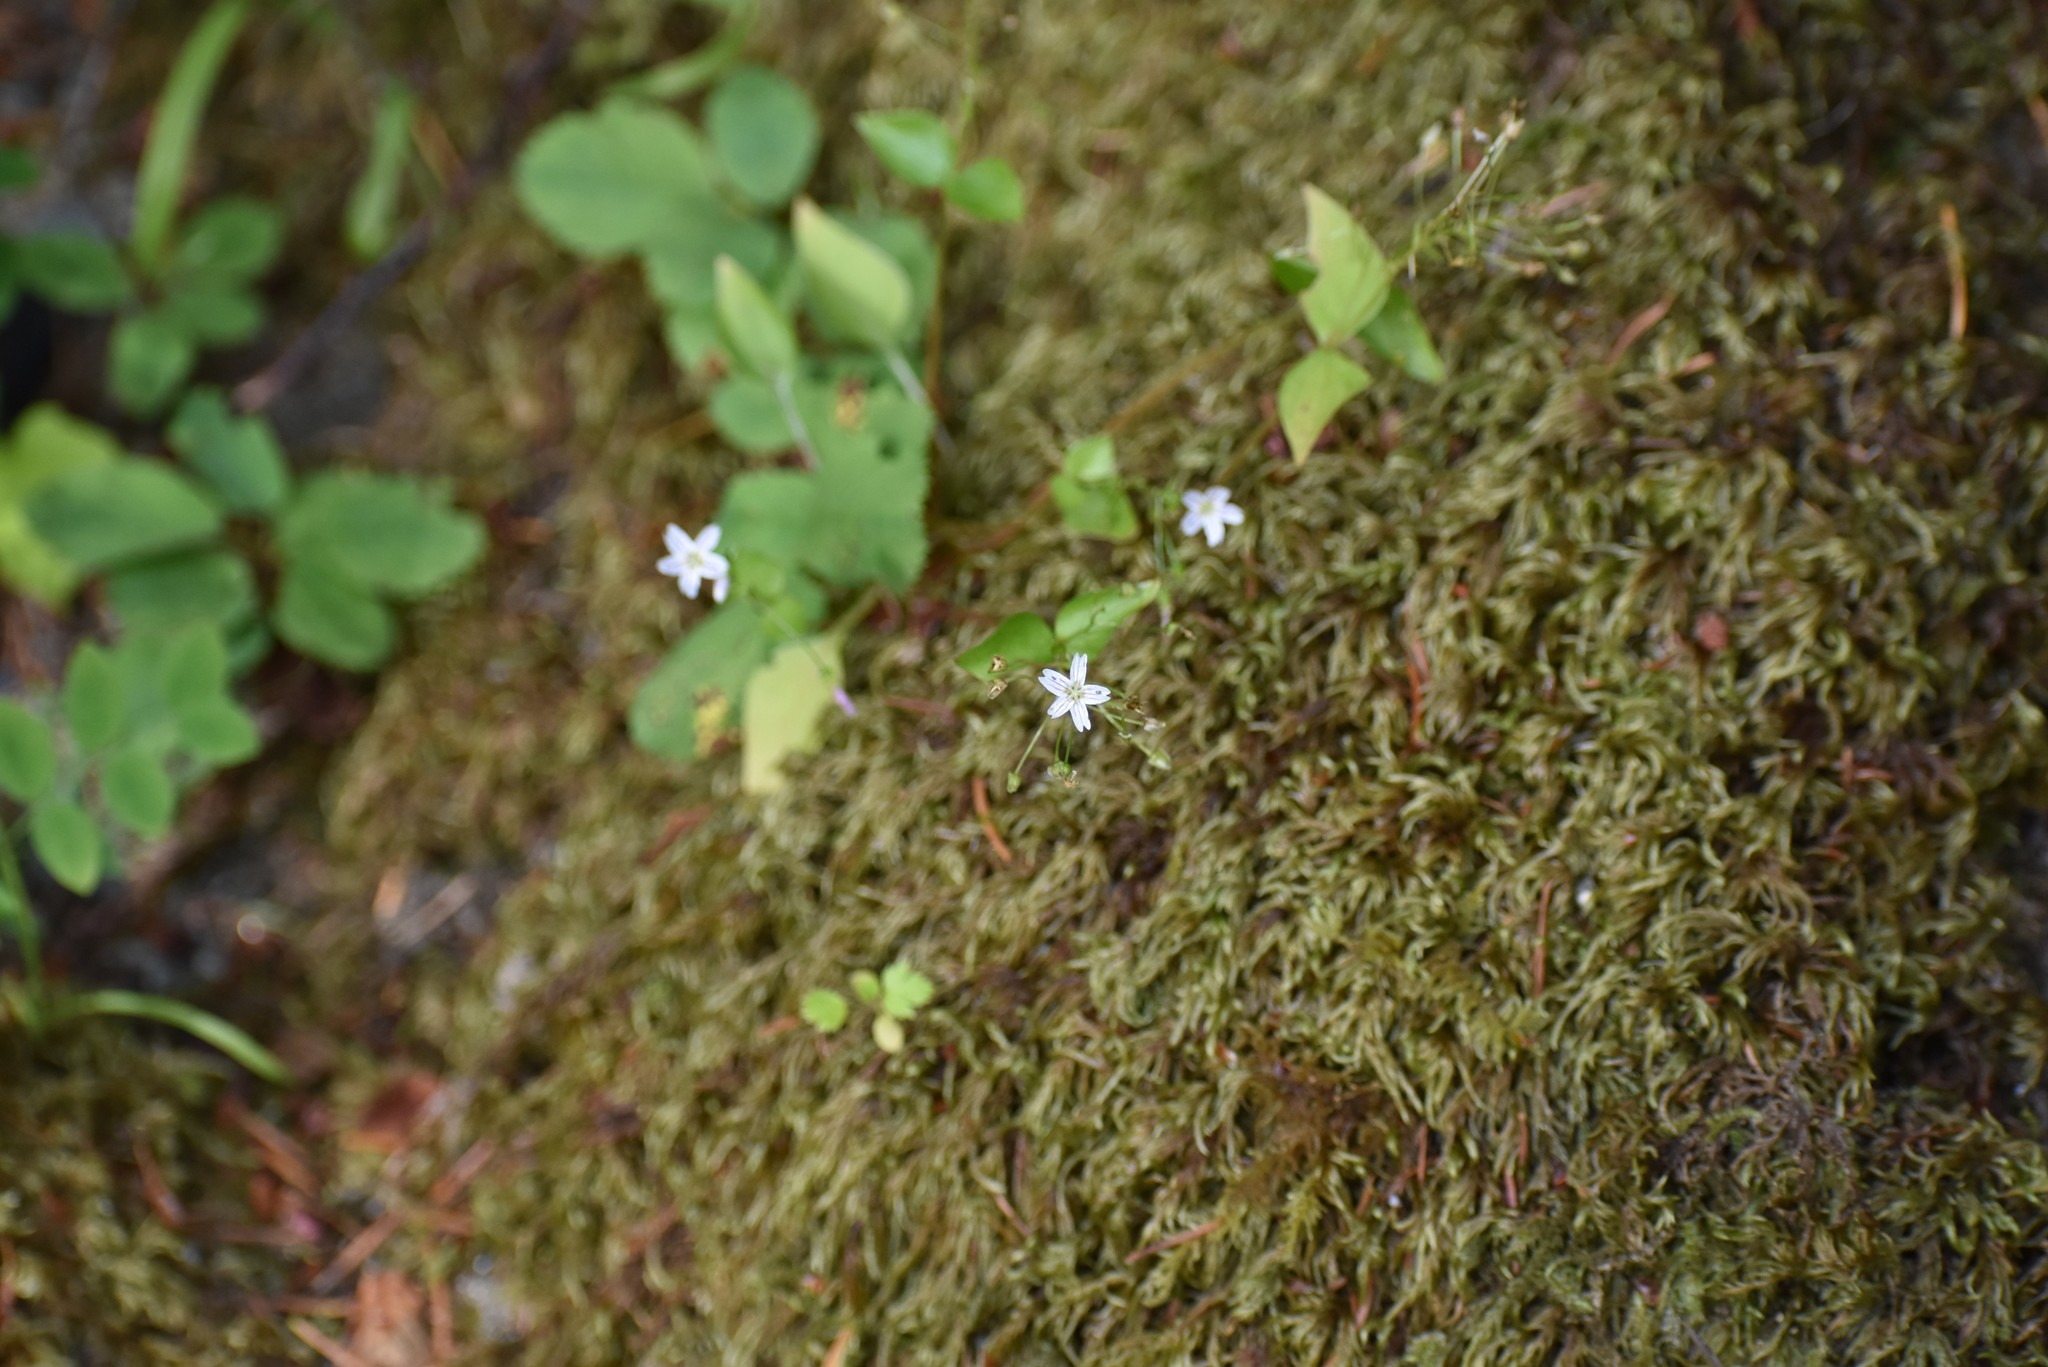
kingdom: Plantae
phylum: Tracheophyta
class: Magnoliopsida
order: Caryophyllales
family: Montiaceae
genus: Claytonia
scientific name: Claytonia sibirica
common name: Pink purslane
